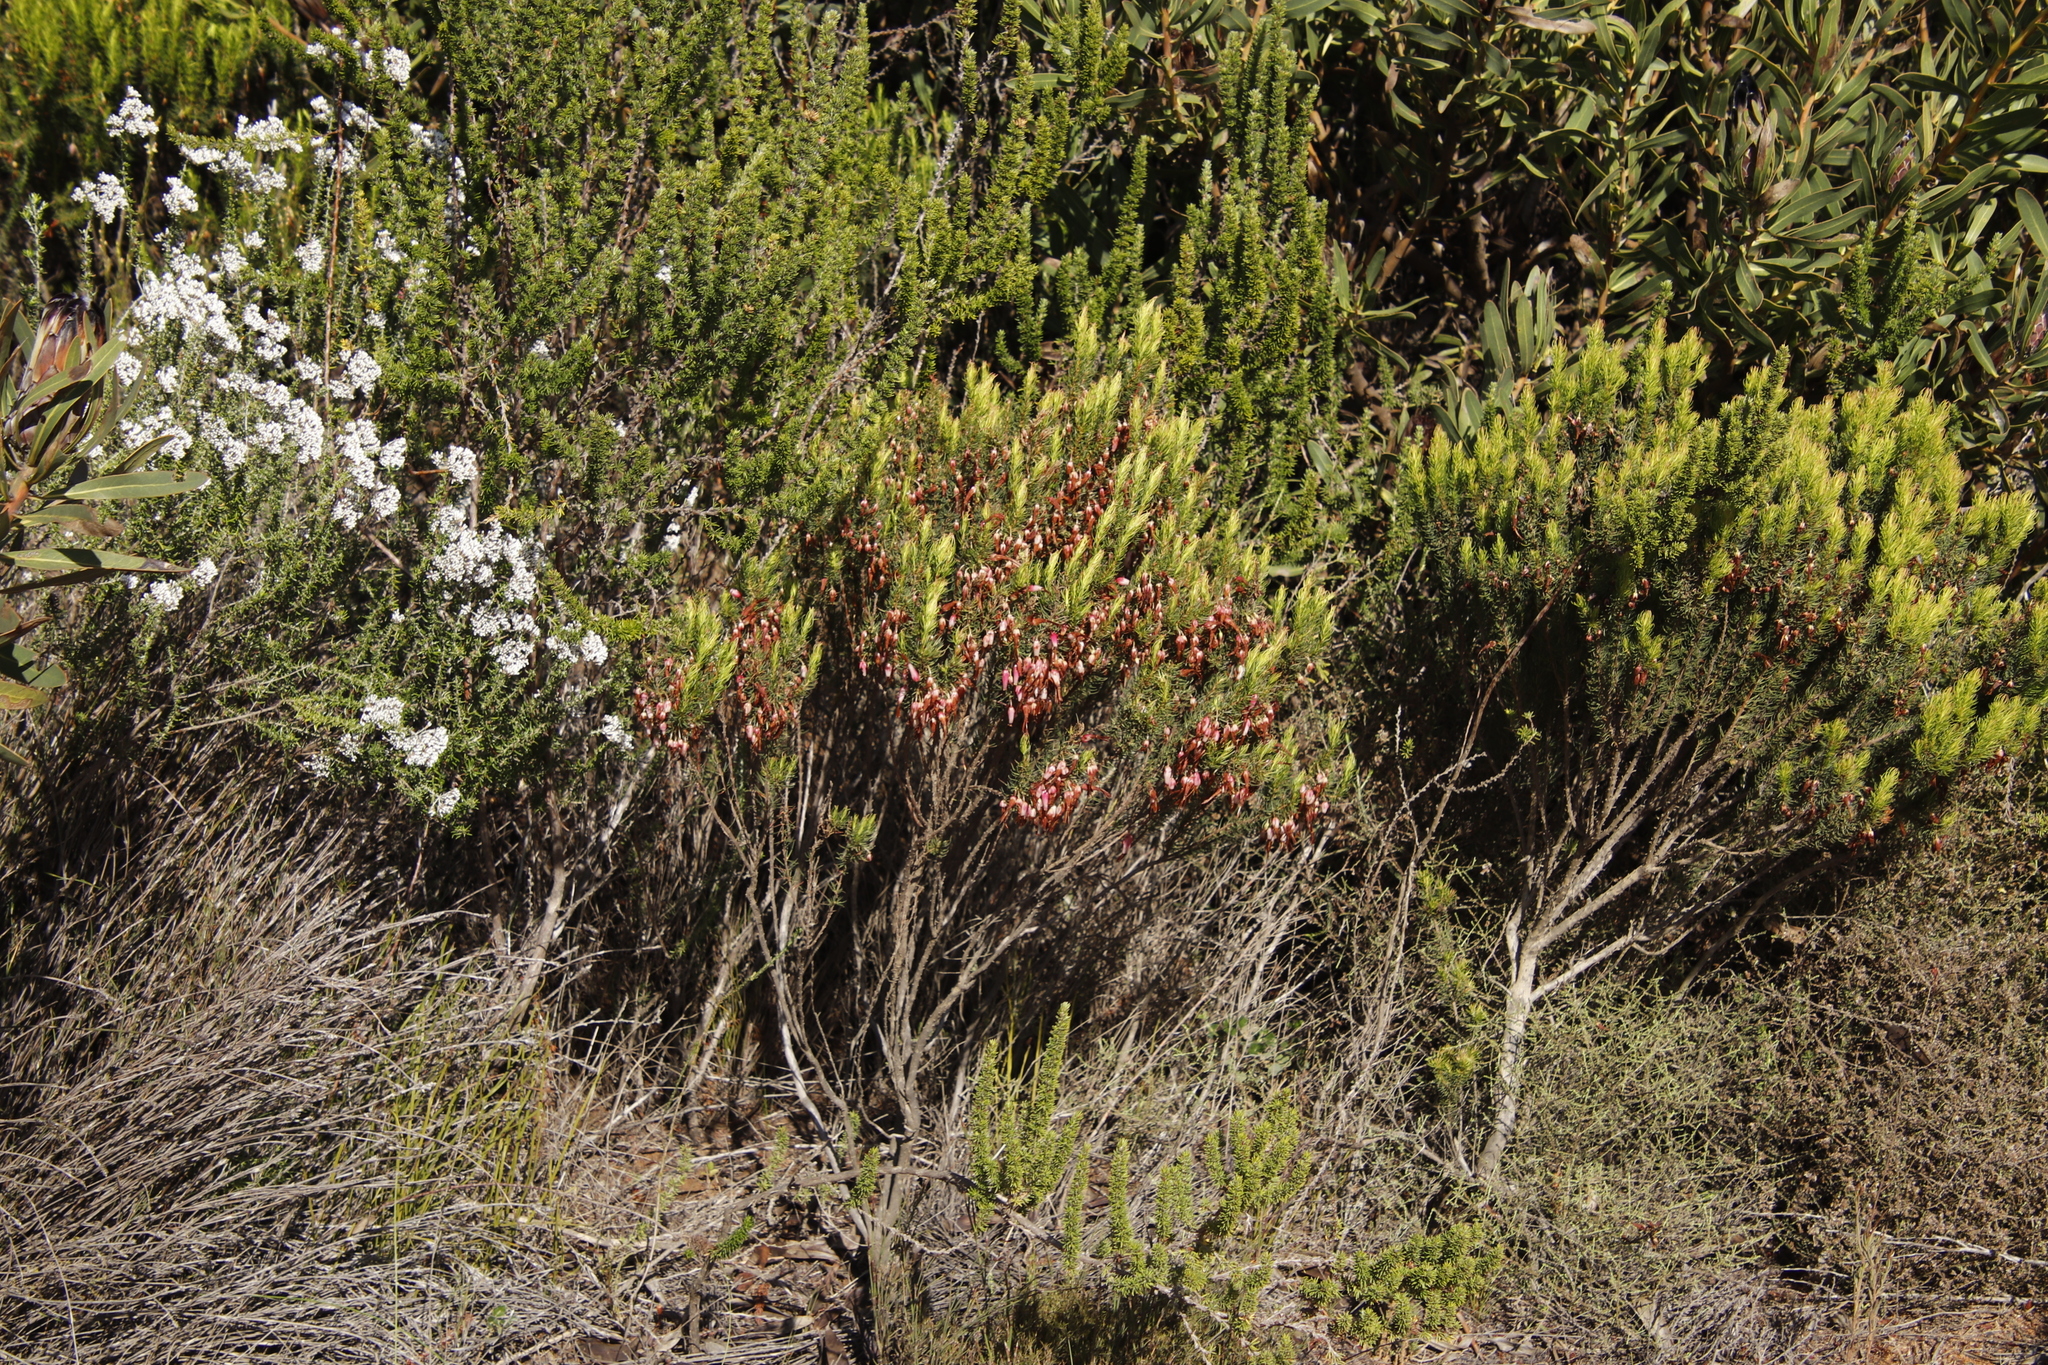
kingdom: Plantae
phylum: Tracheophyta
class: Magnoliopsida
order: Ericales
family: Ericaceae
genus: Erica
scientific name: Erica plukenetii
